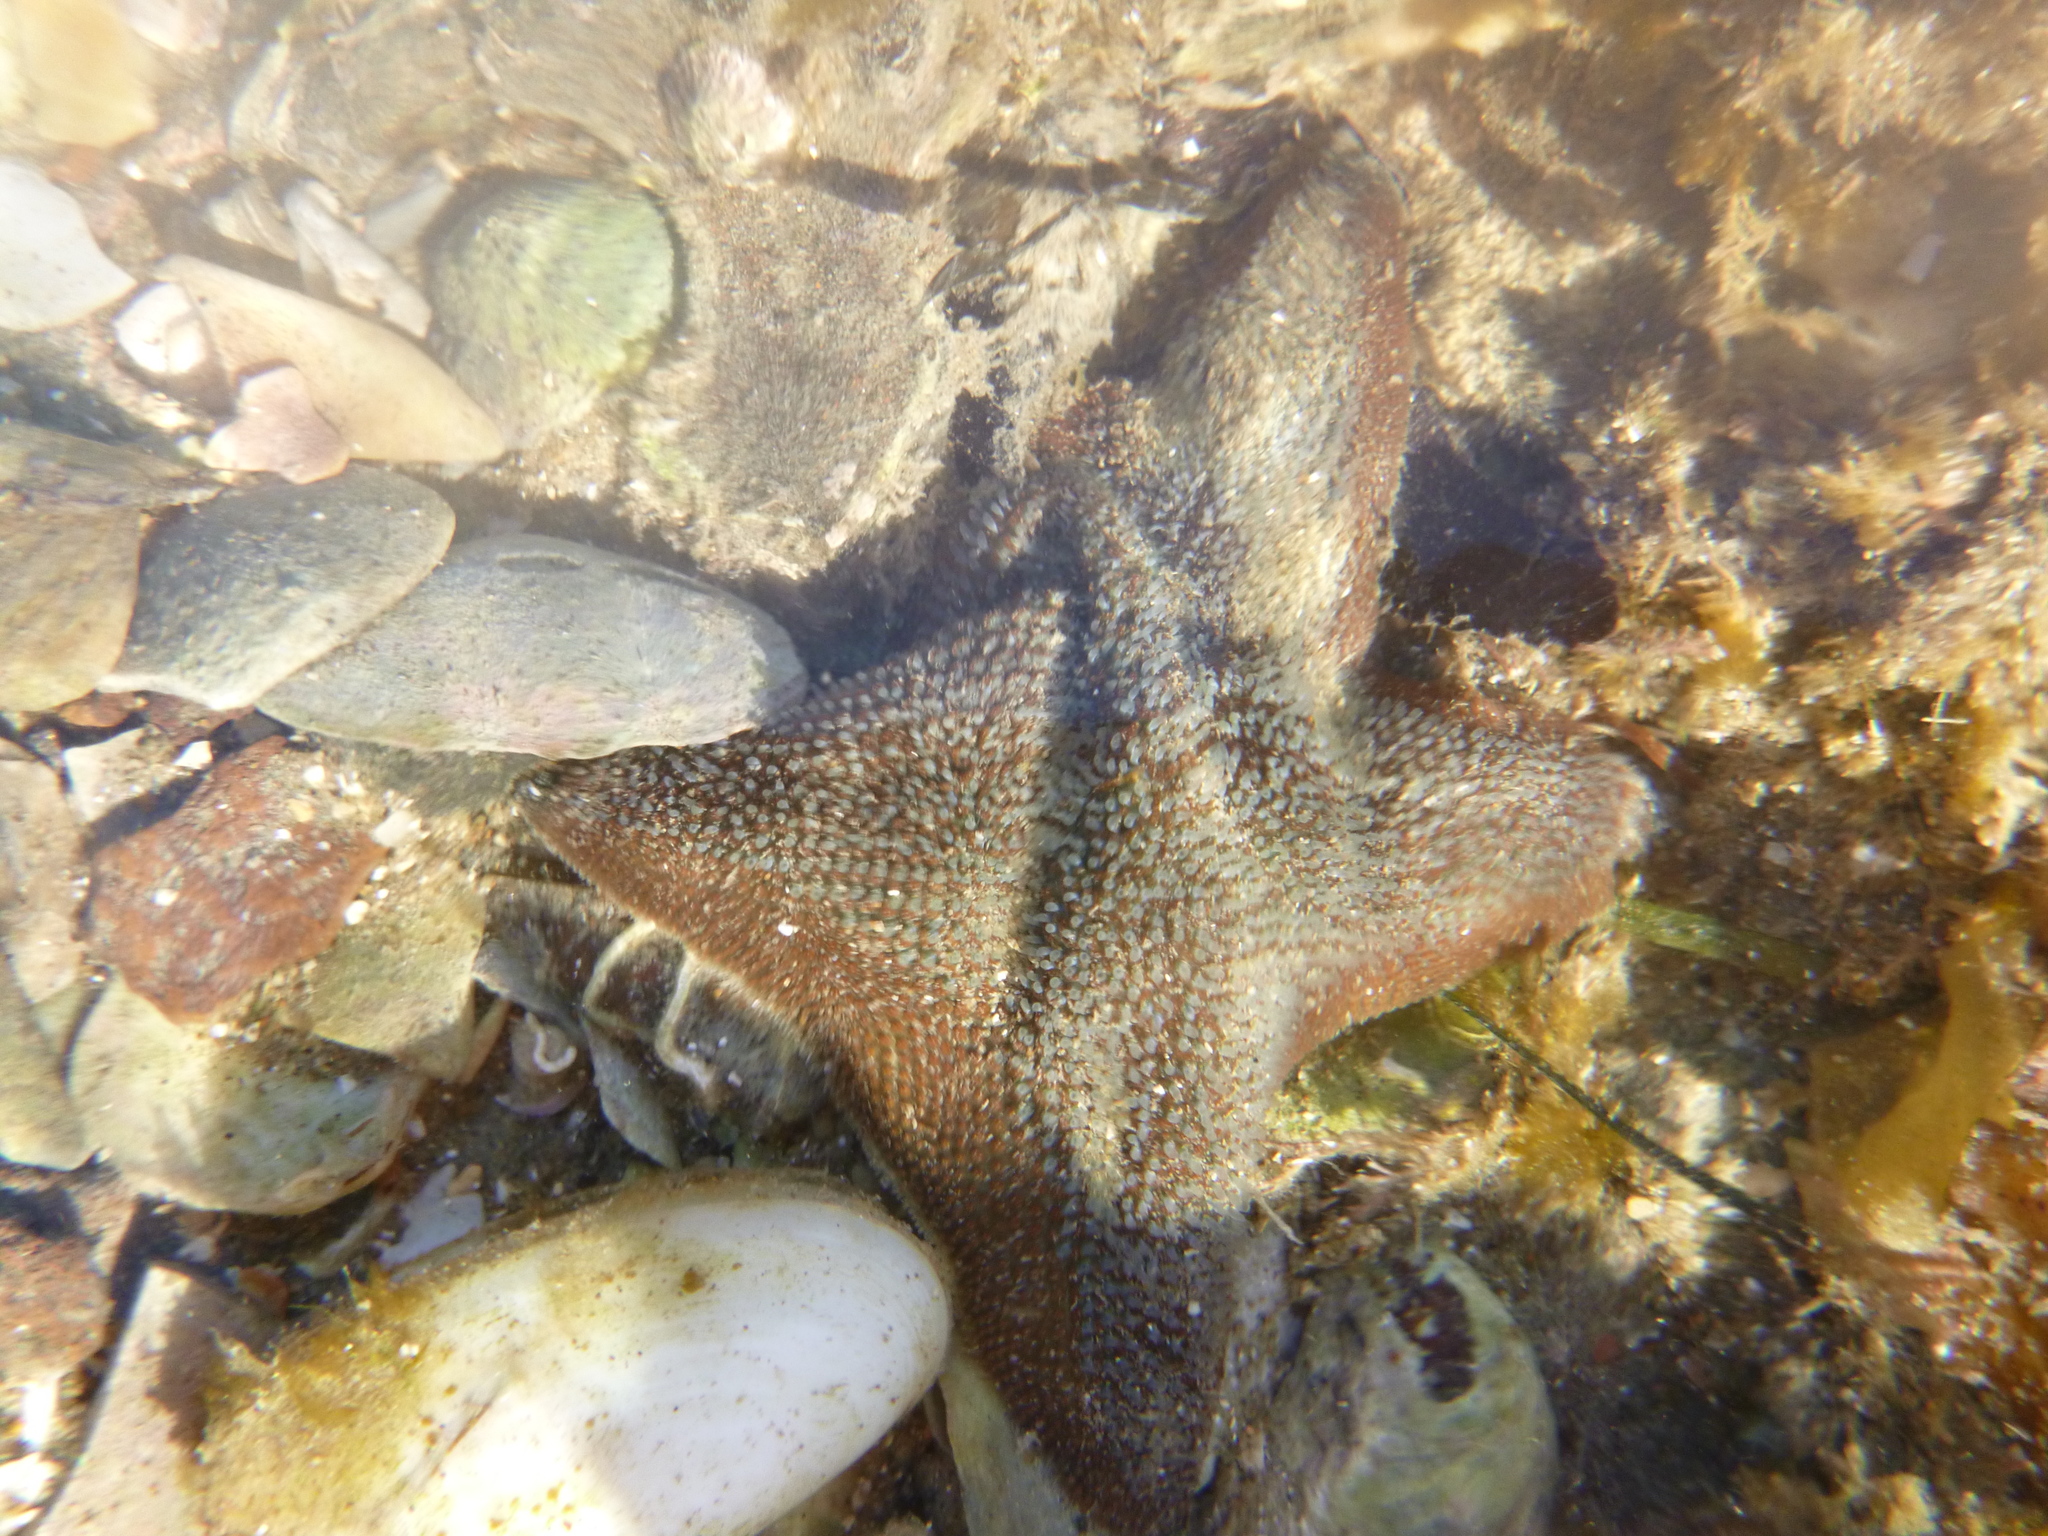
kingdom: Animalia
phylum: Echinodermata
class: Asteroidea
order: Valvatida
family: Asterinidae
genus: Patiriella
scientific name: Patiriella regularis
